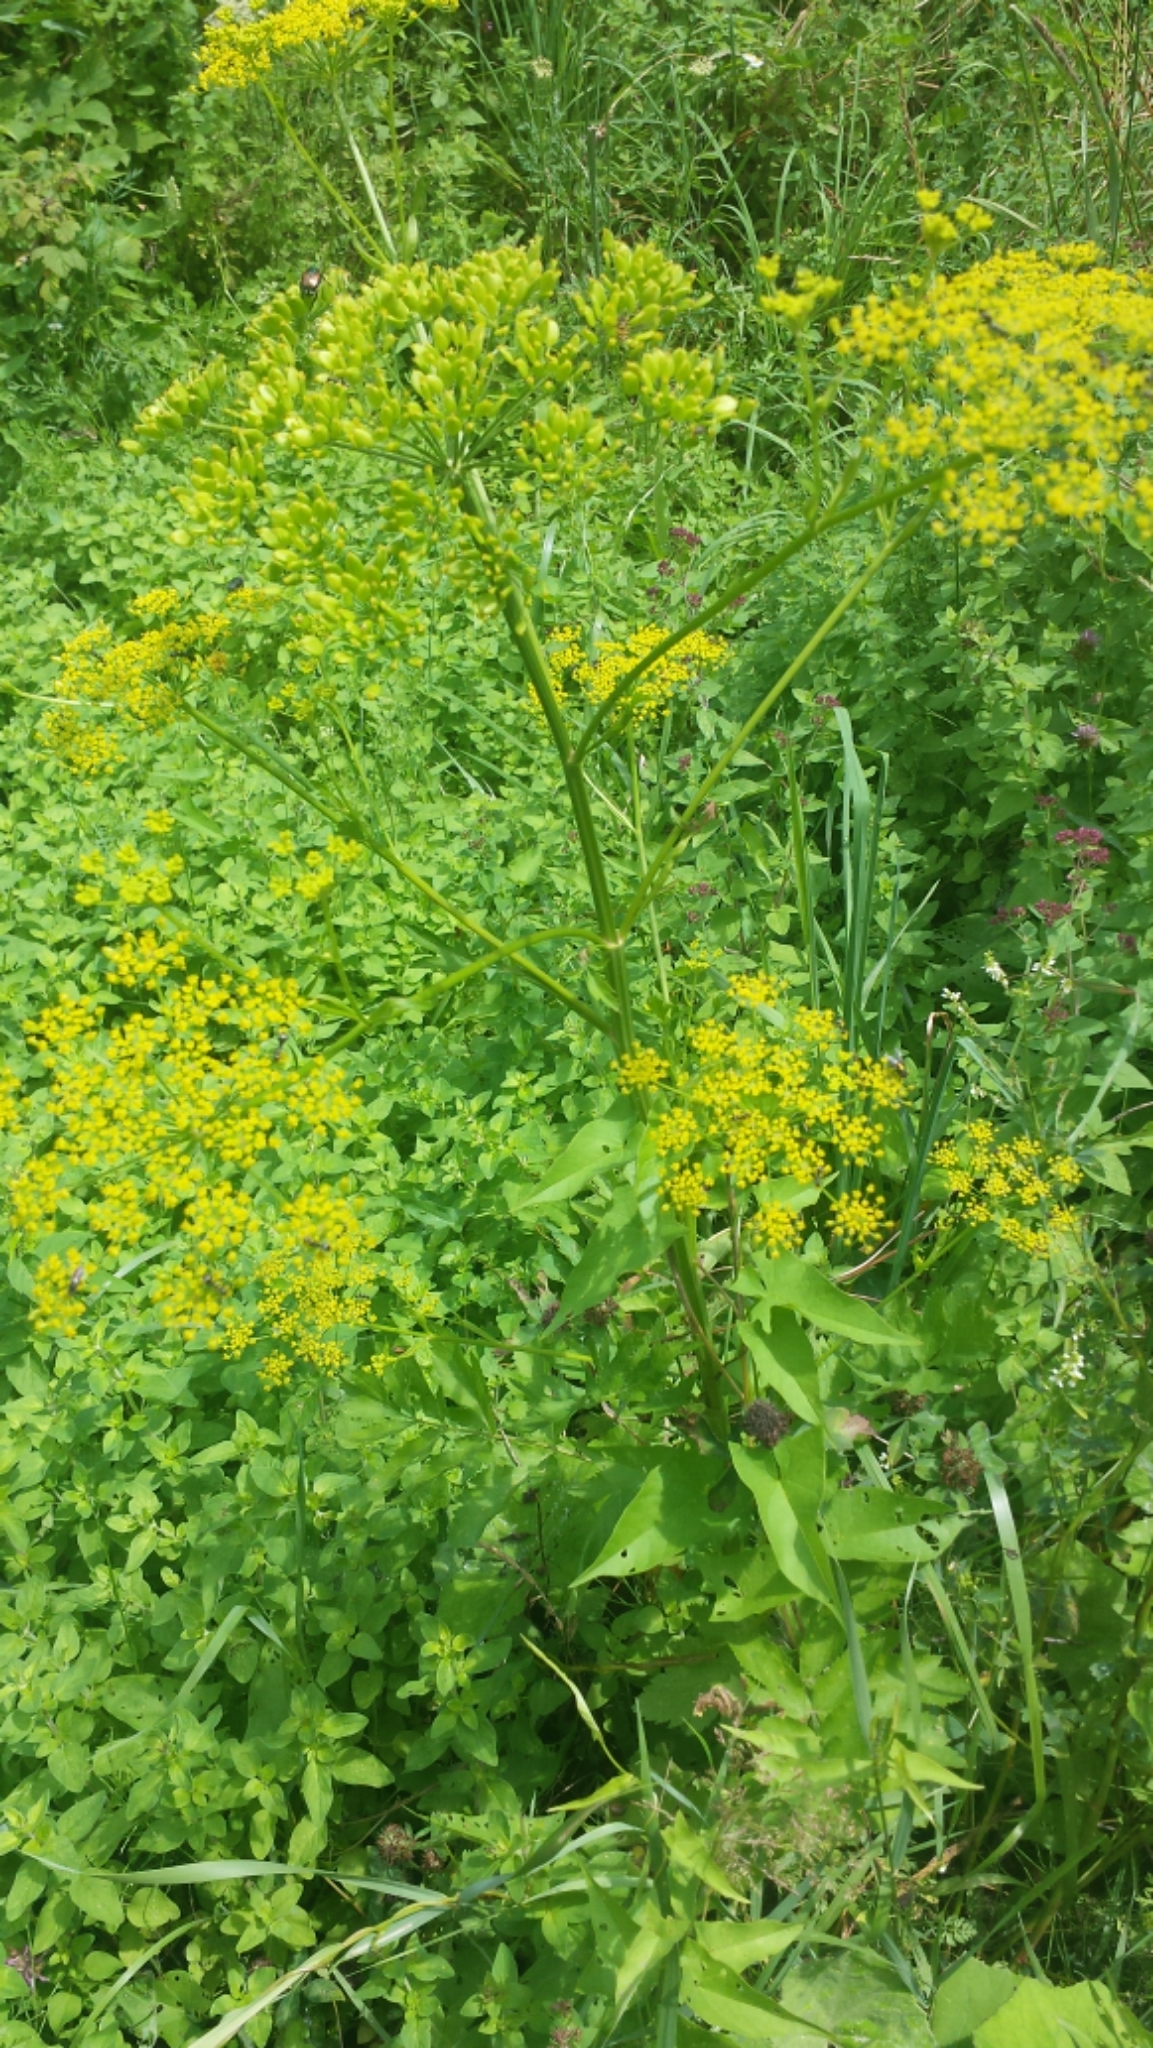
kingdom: Plantae
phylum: Tracheophyta
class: Magnoliopsida
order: Apiales
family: Apiaceae
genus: Pastinaca
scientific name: Pastinaca sativa
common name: Wild parsnip
